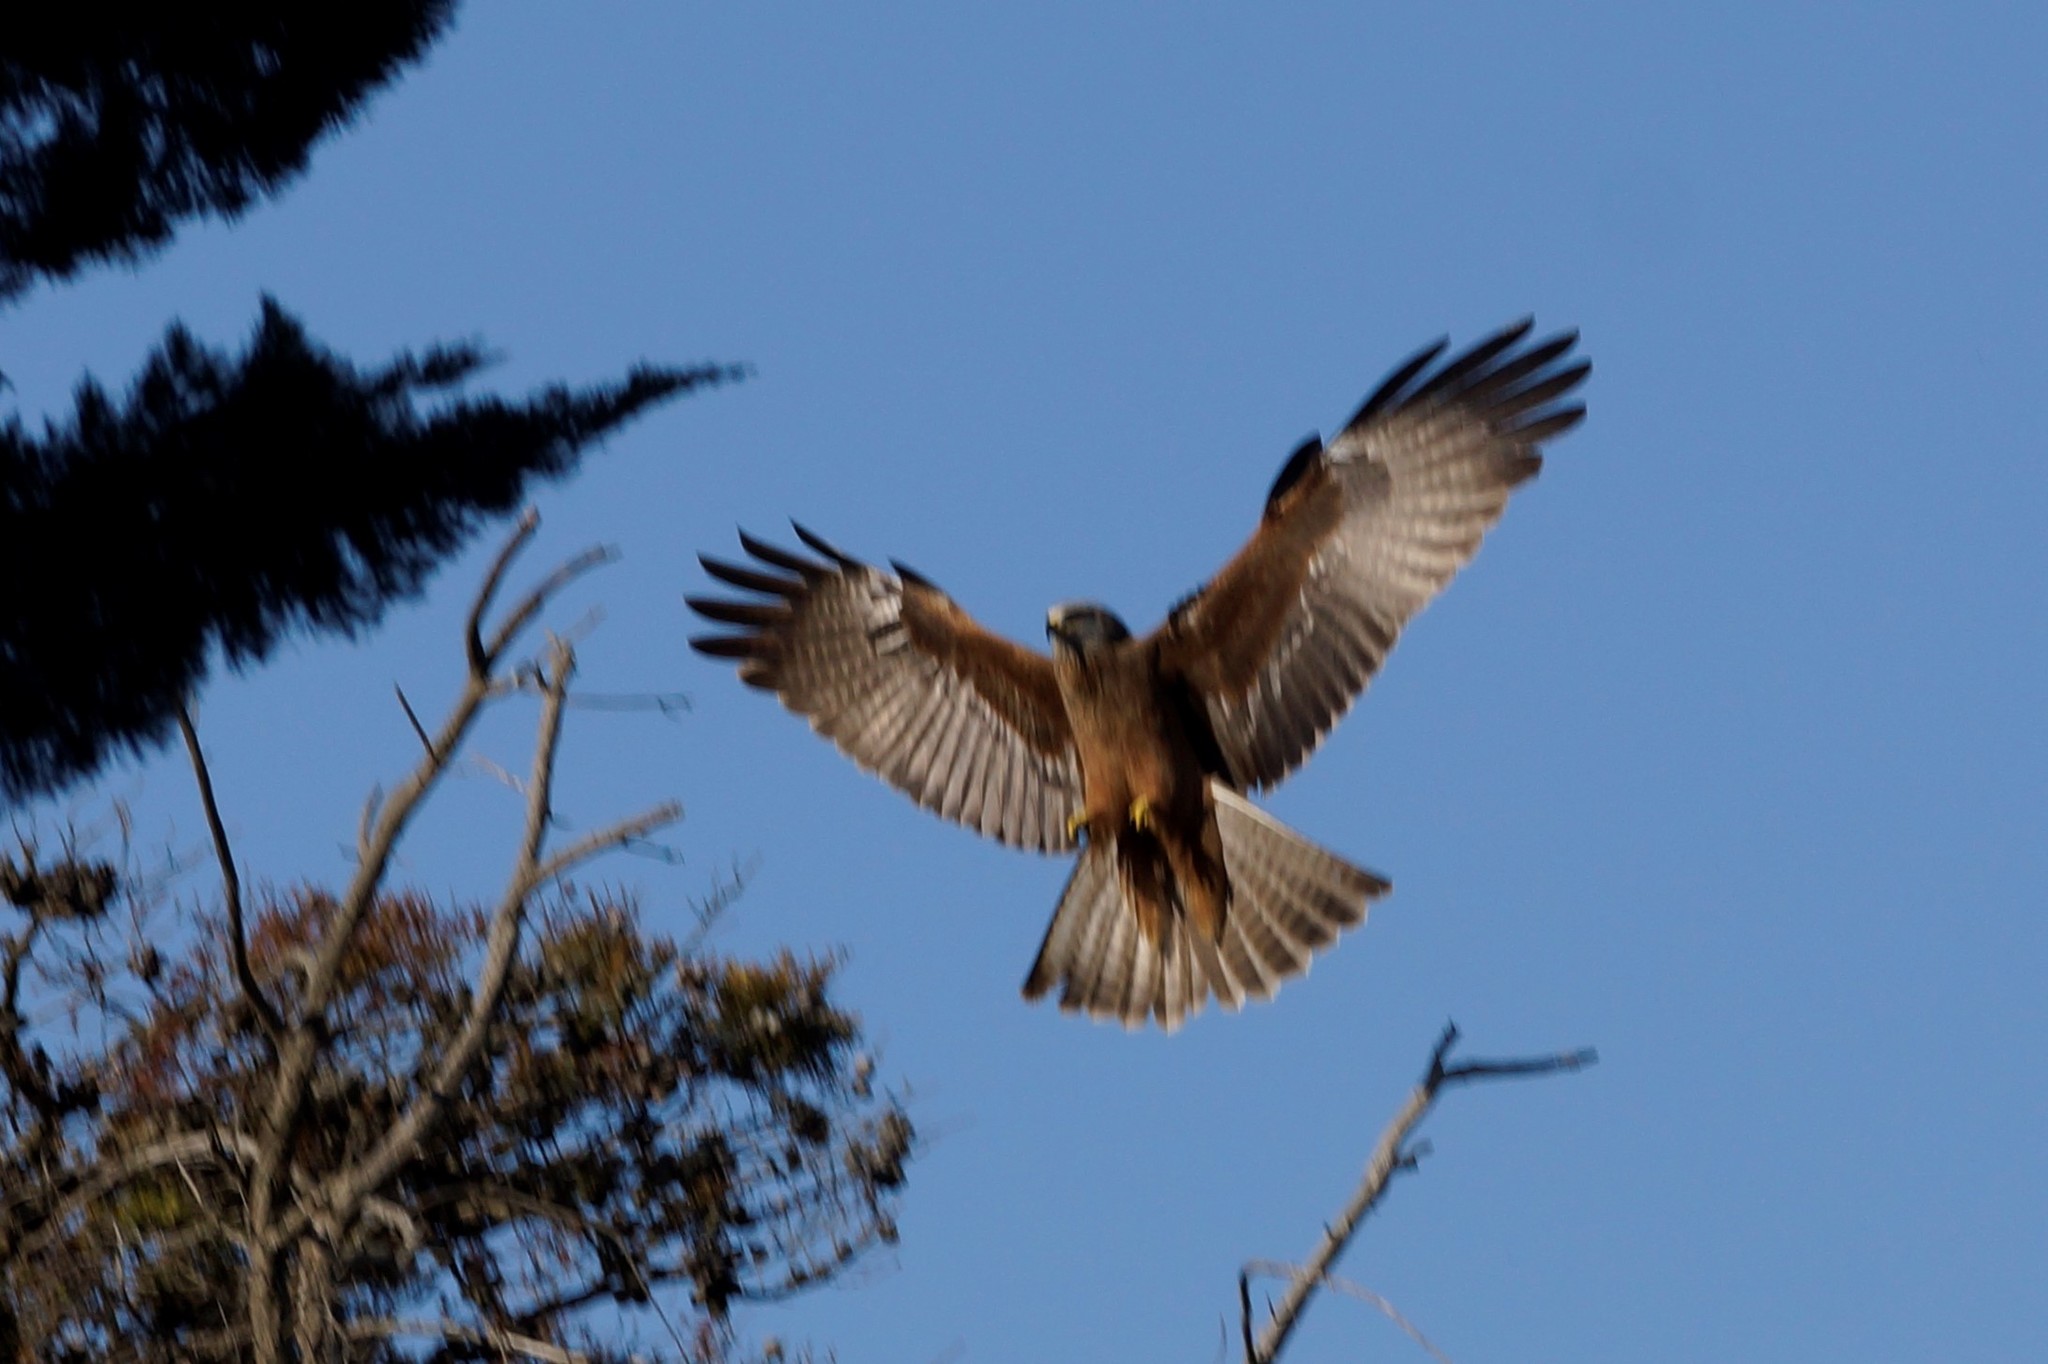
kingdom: Animalia
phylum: Chordata
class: Aves
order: Accipitriformes
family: Accipitridae
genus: Milvus
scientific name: Milvus migrans
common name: Black kite
